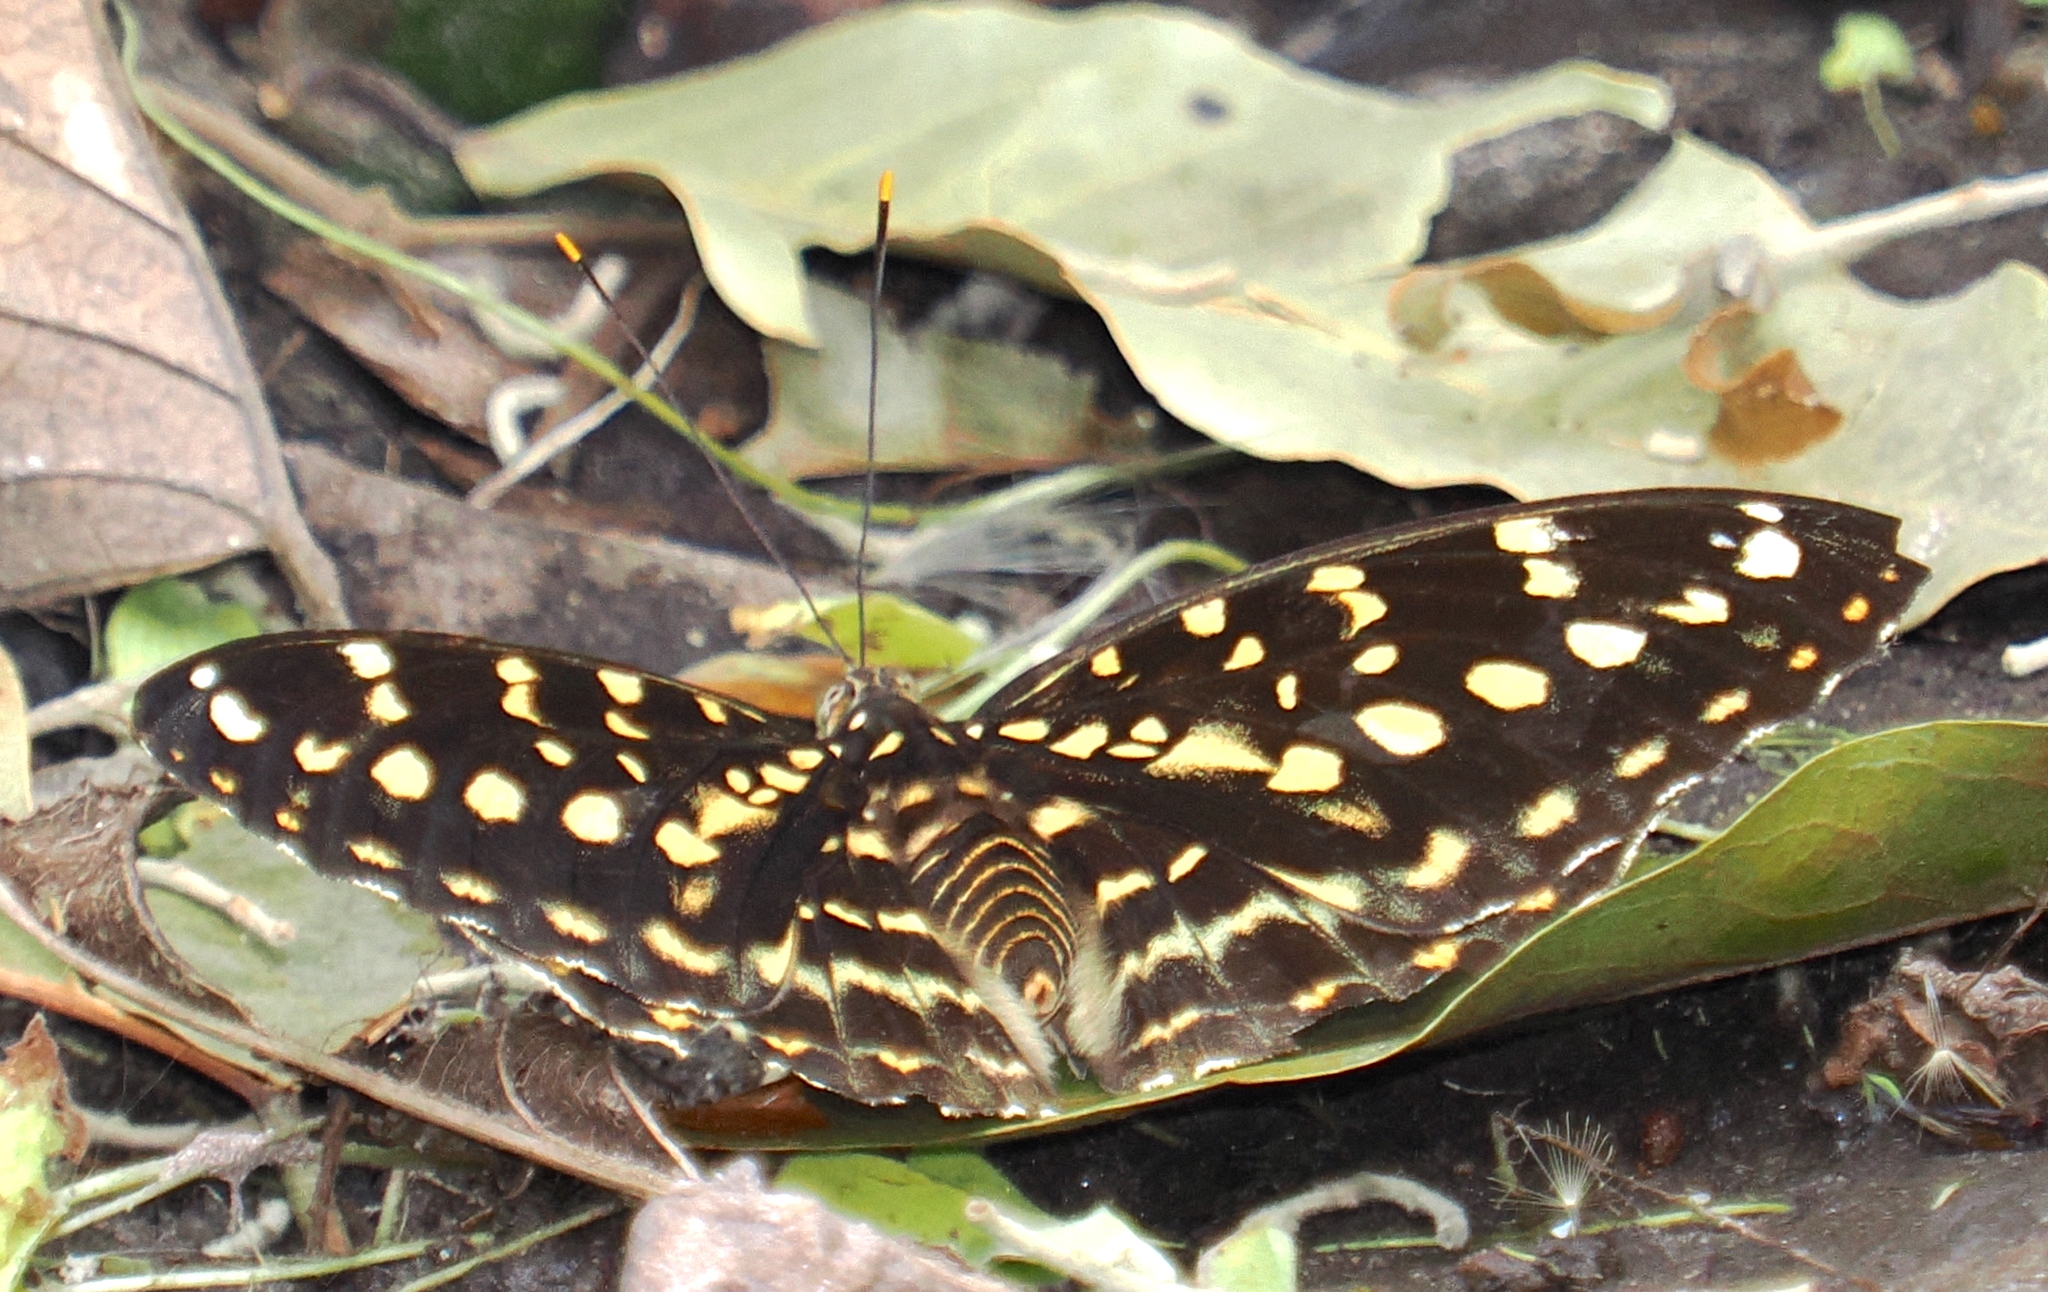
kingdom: Animalia
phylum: Arthropoda
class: Insecta
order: Lepidoptera
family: Nymphalidae
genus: Lexias
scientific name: Lexias pardalis
